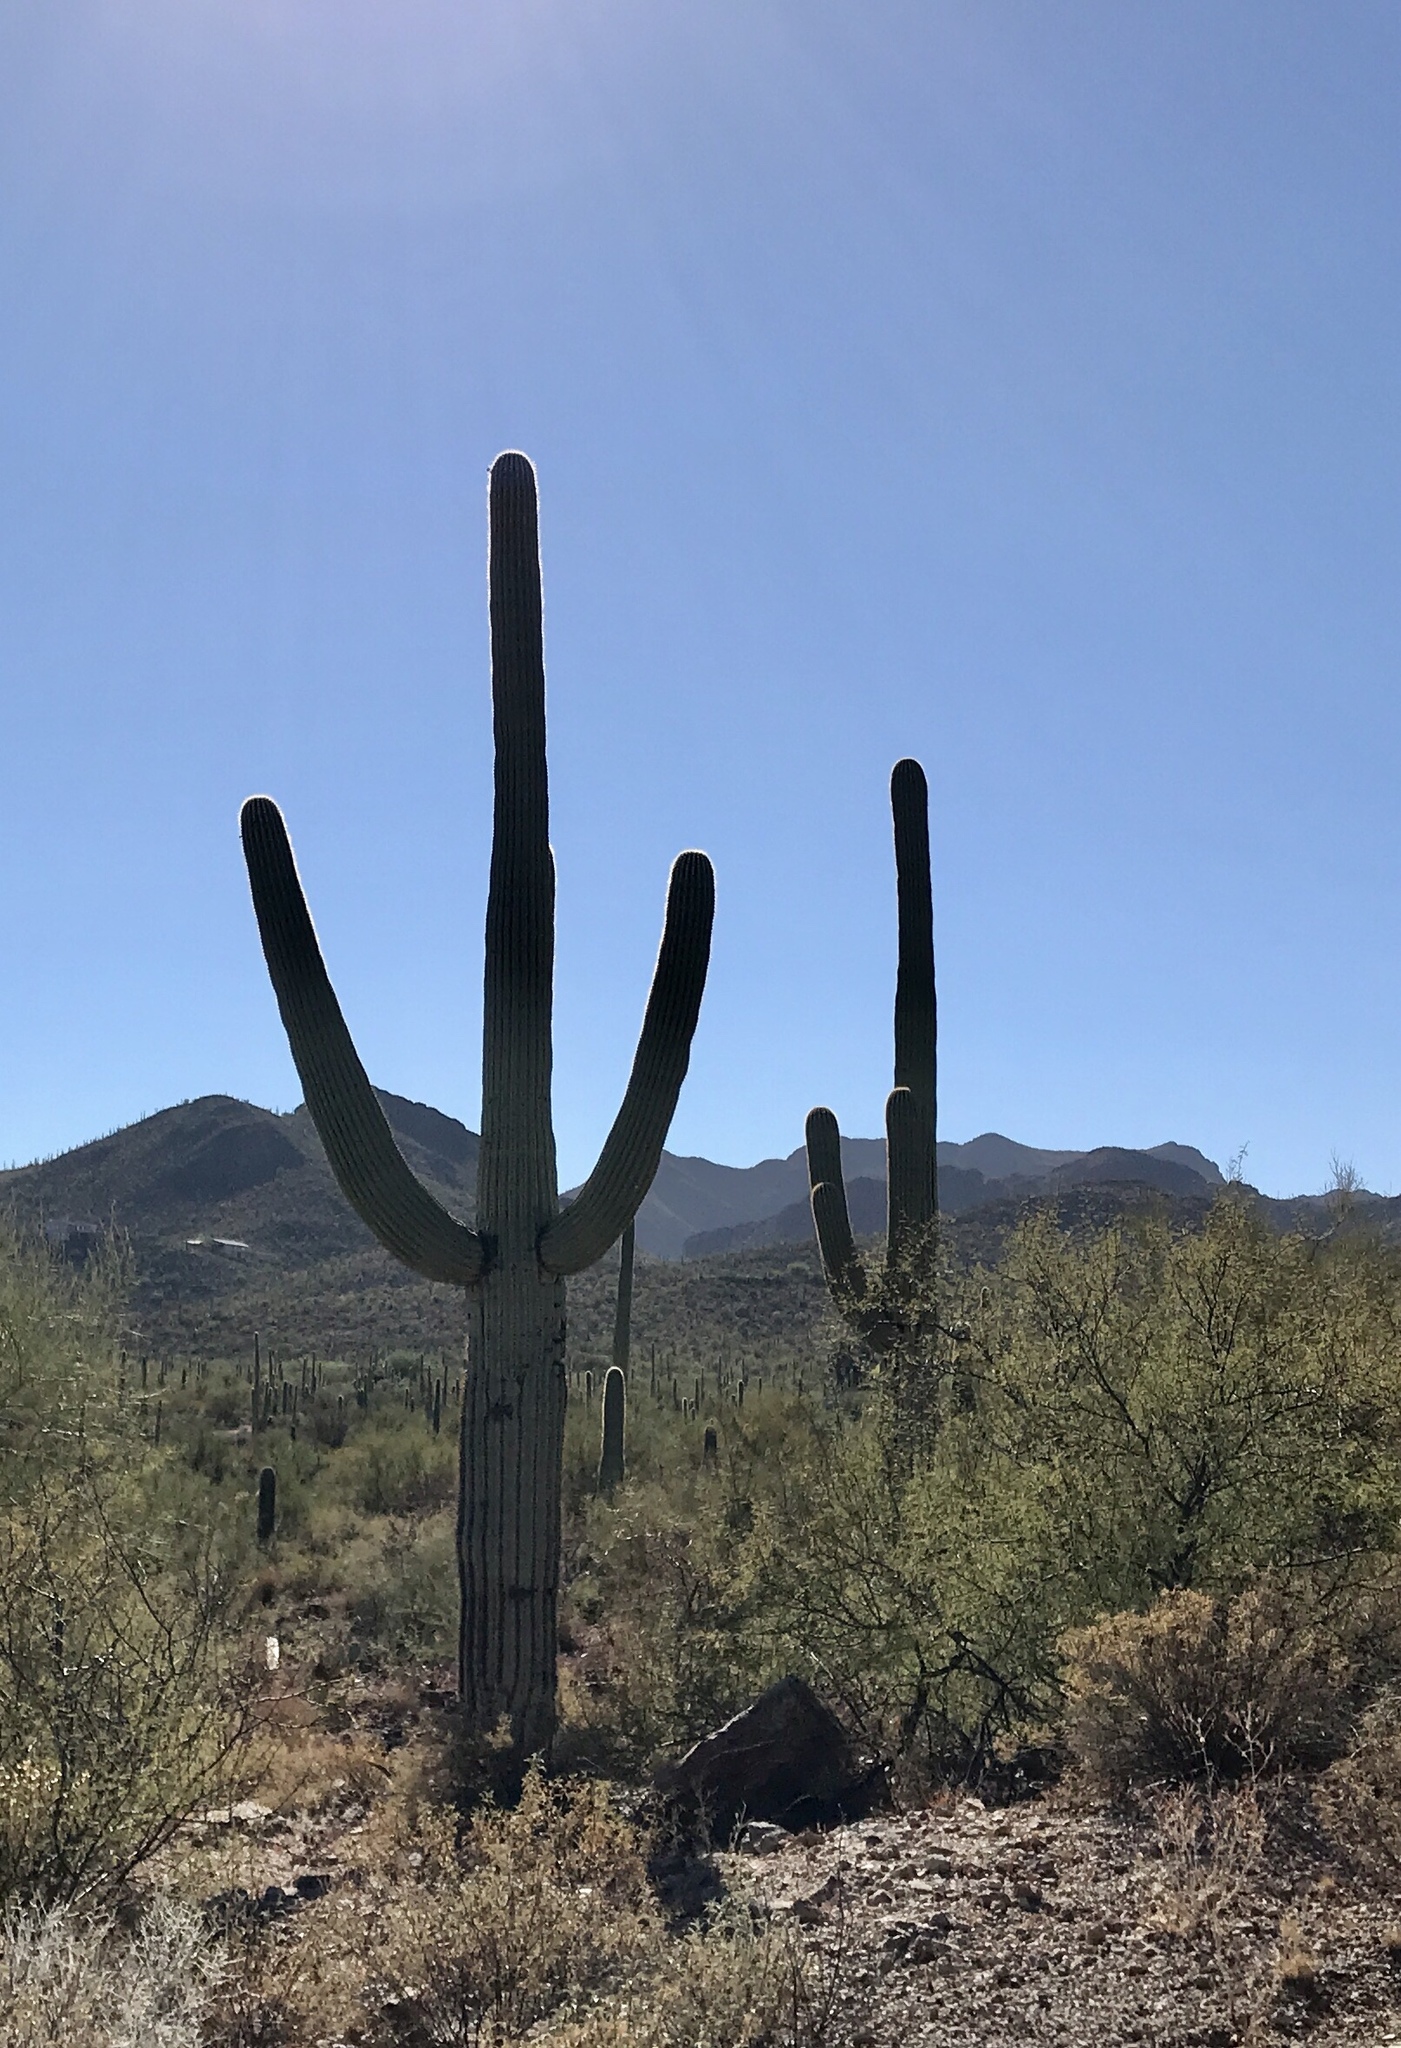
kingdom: Plantae
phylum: Tracheophyta
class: Magnoliopsida
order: Caryophyllales
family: Cactaceae
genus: Carnegiea
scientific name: Carnegiea gigantea
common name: Saguaro
